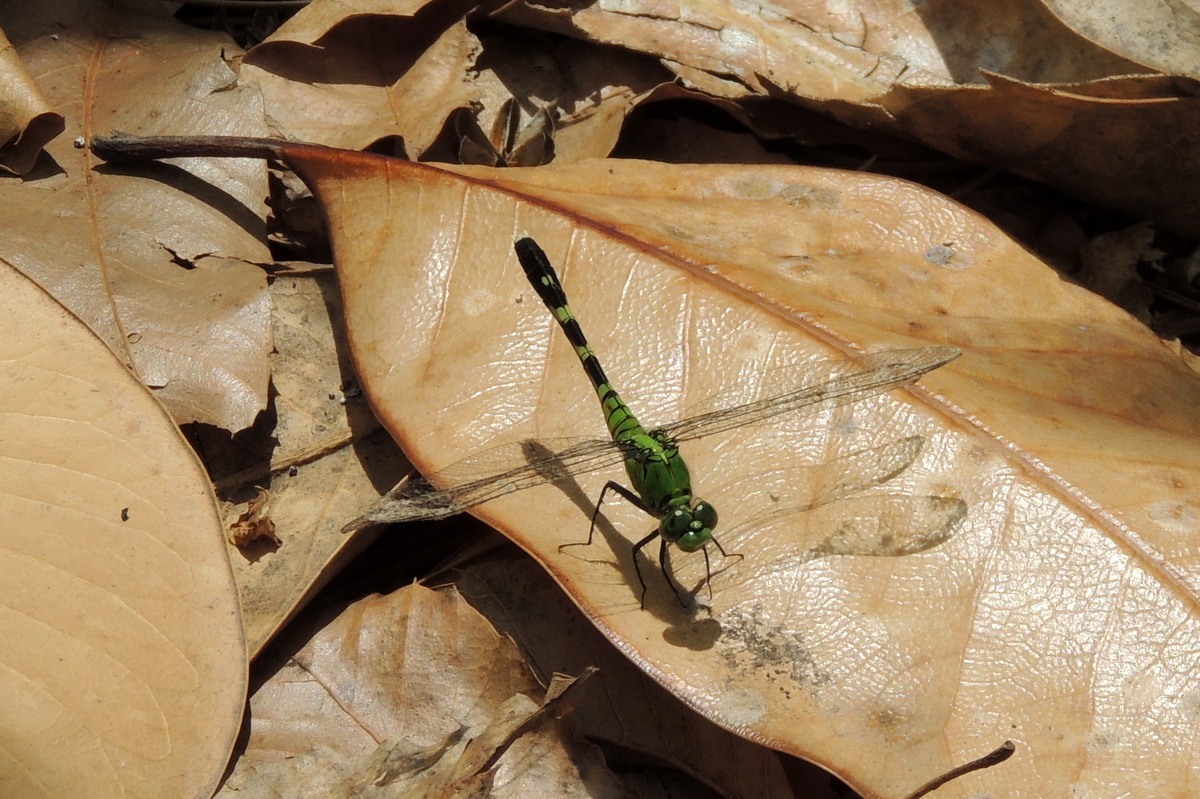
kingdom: Animalia
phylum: Arthropoda
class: Insecta
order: Odonata
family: Libellulidae
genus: Erythemis
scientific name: Erythemis simplicicollis
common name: Eastern pondhawk
